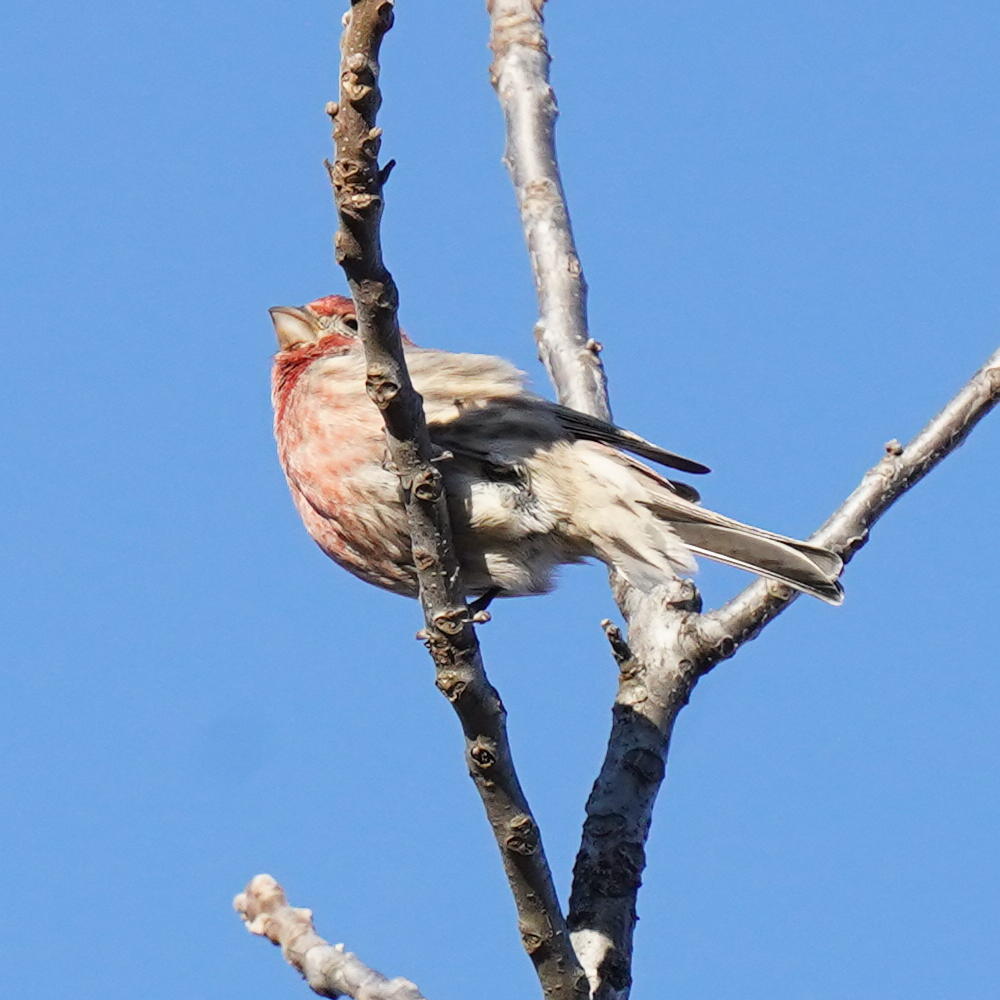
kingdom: Animalia
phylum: Chordata
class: Aves
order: Passeriformes
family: Fringillidae
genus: Haemorhous
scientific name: Haemorhous mexicanus
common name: House finch
